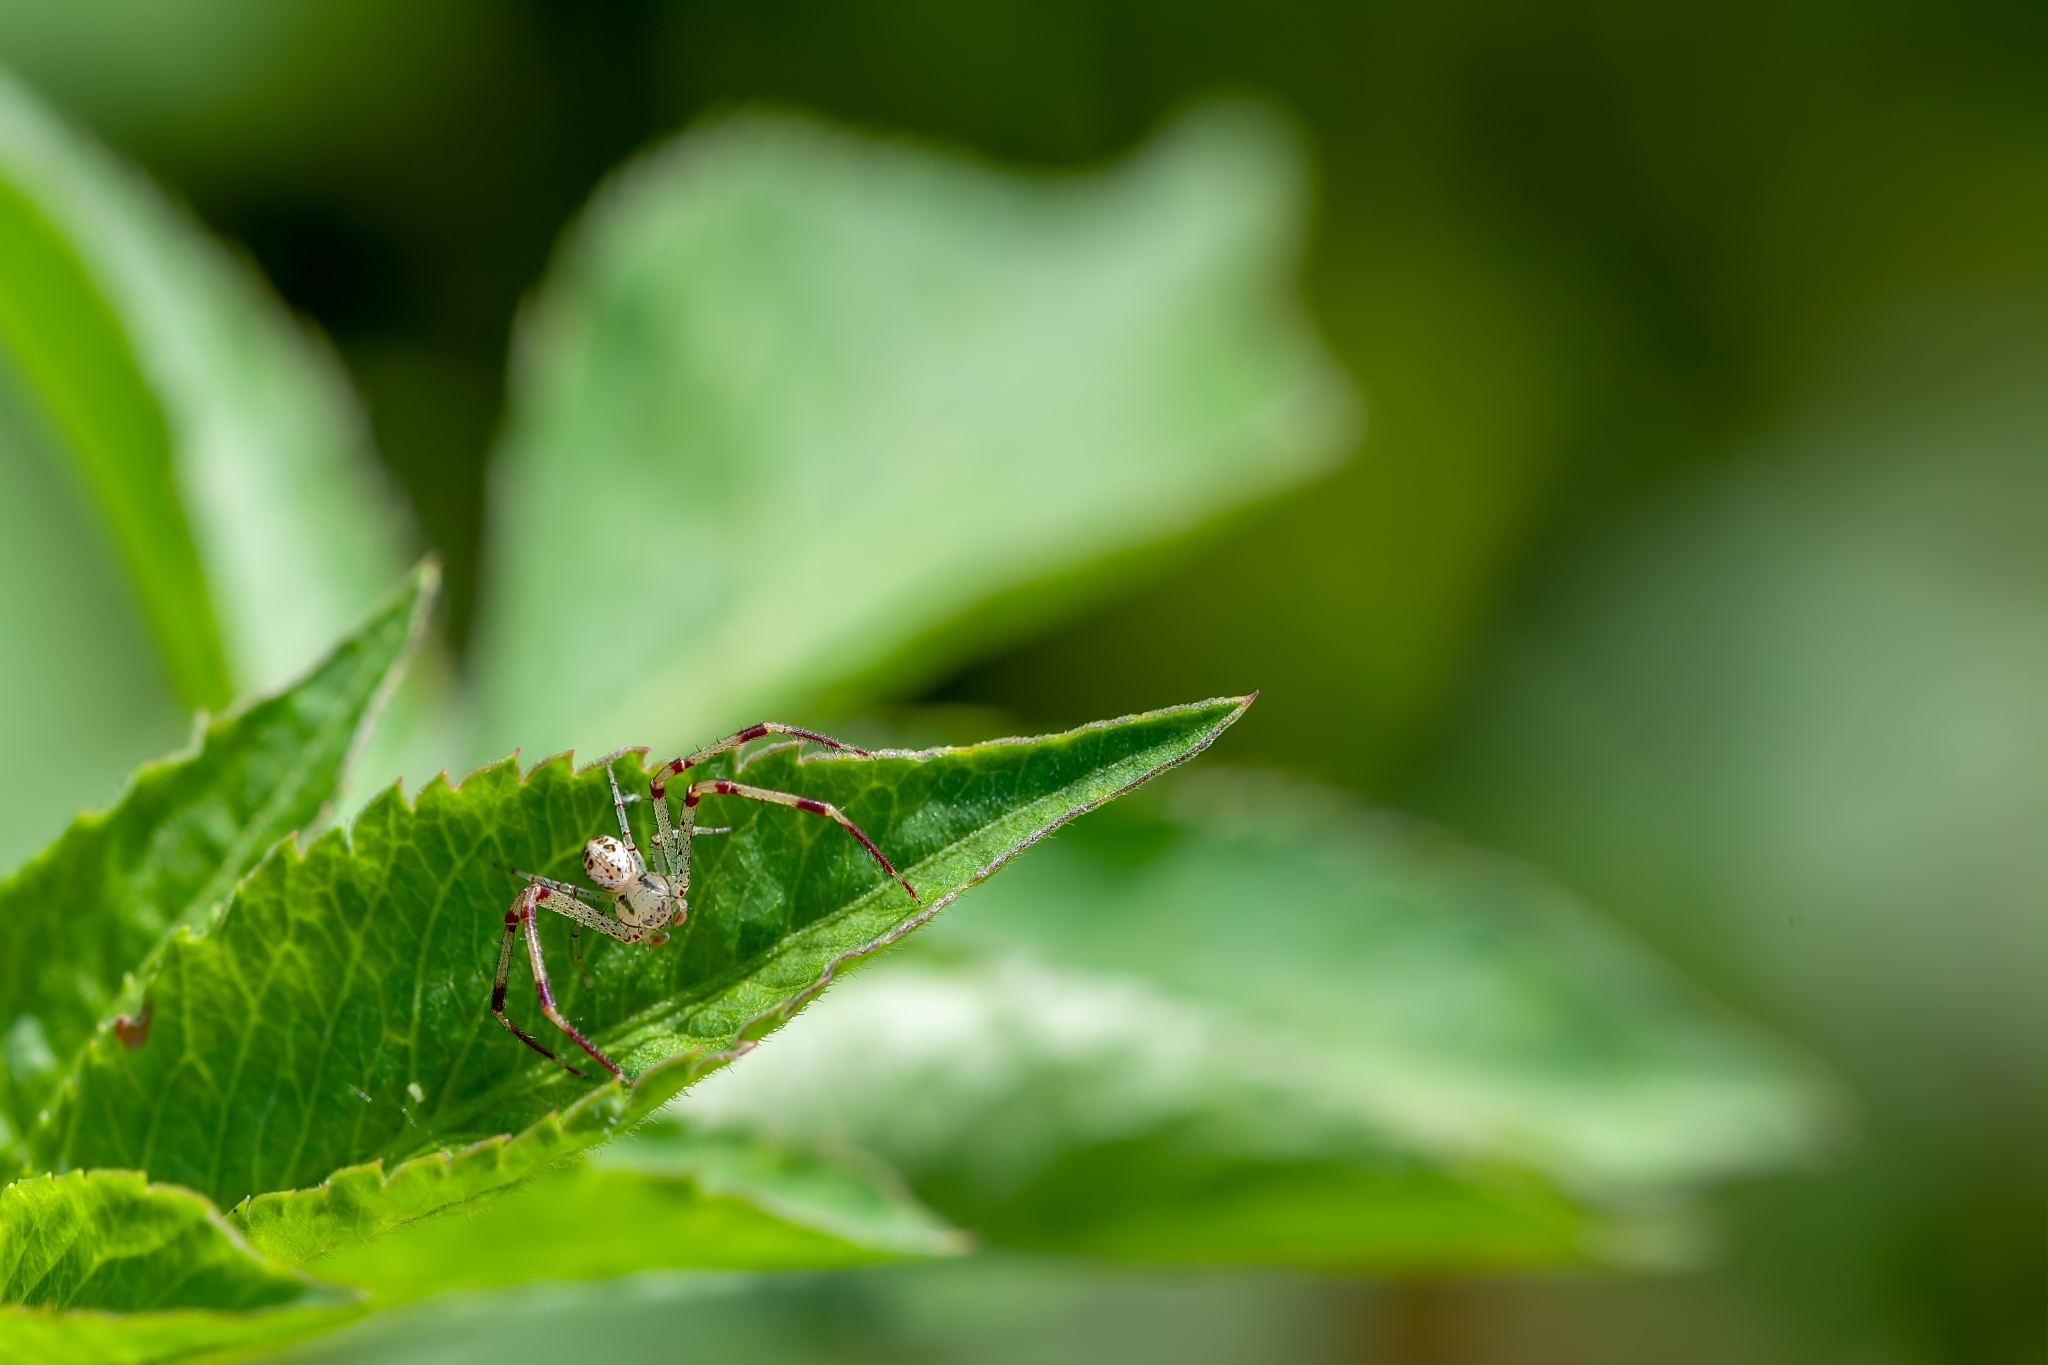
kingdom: Animalia
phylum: Arthropoda
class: Arachnida
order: Araneae
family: Thomisidae
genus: Mecaphesa
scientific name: Mecaphesa celer
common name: Crab spiders
